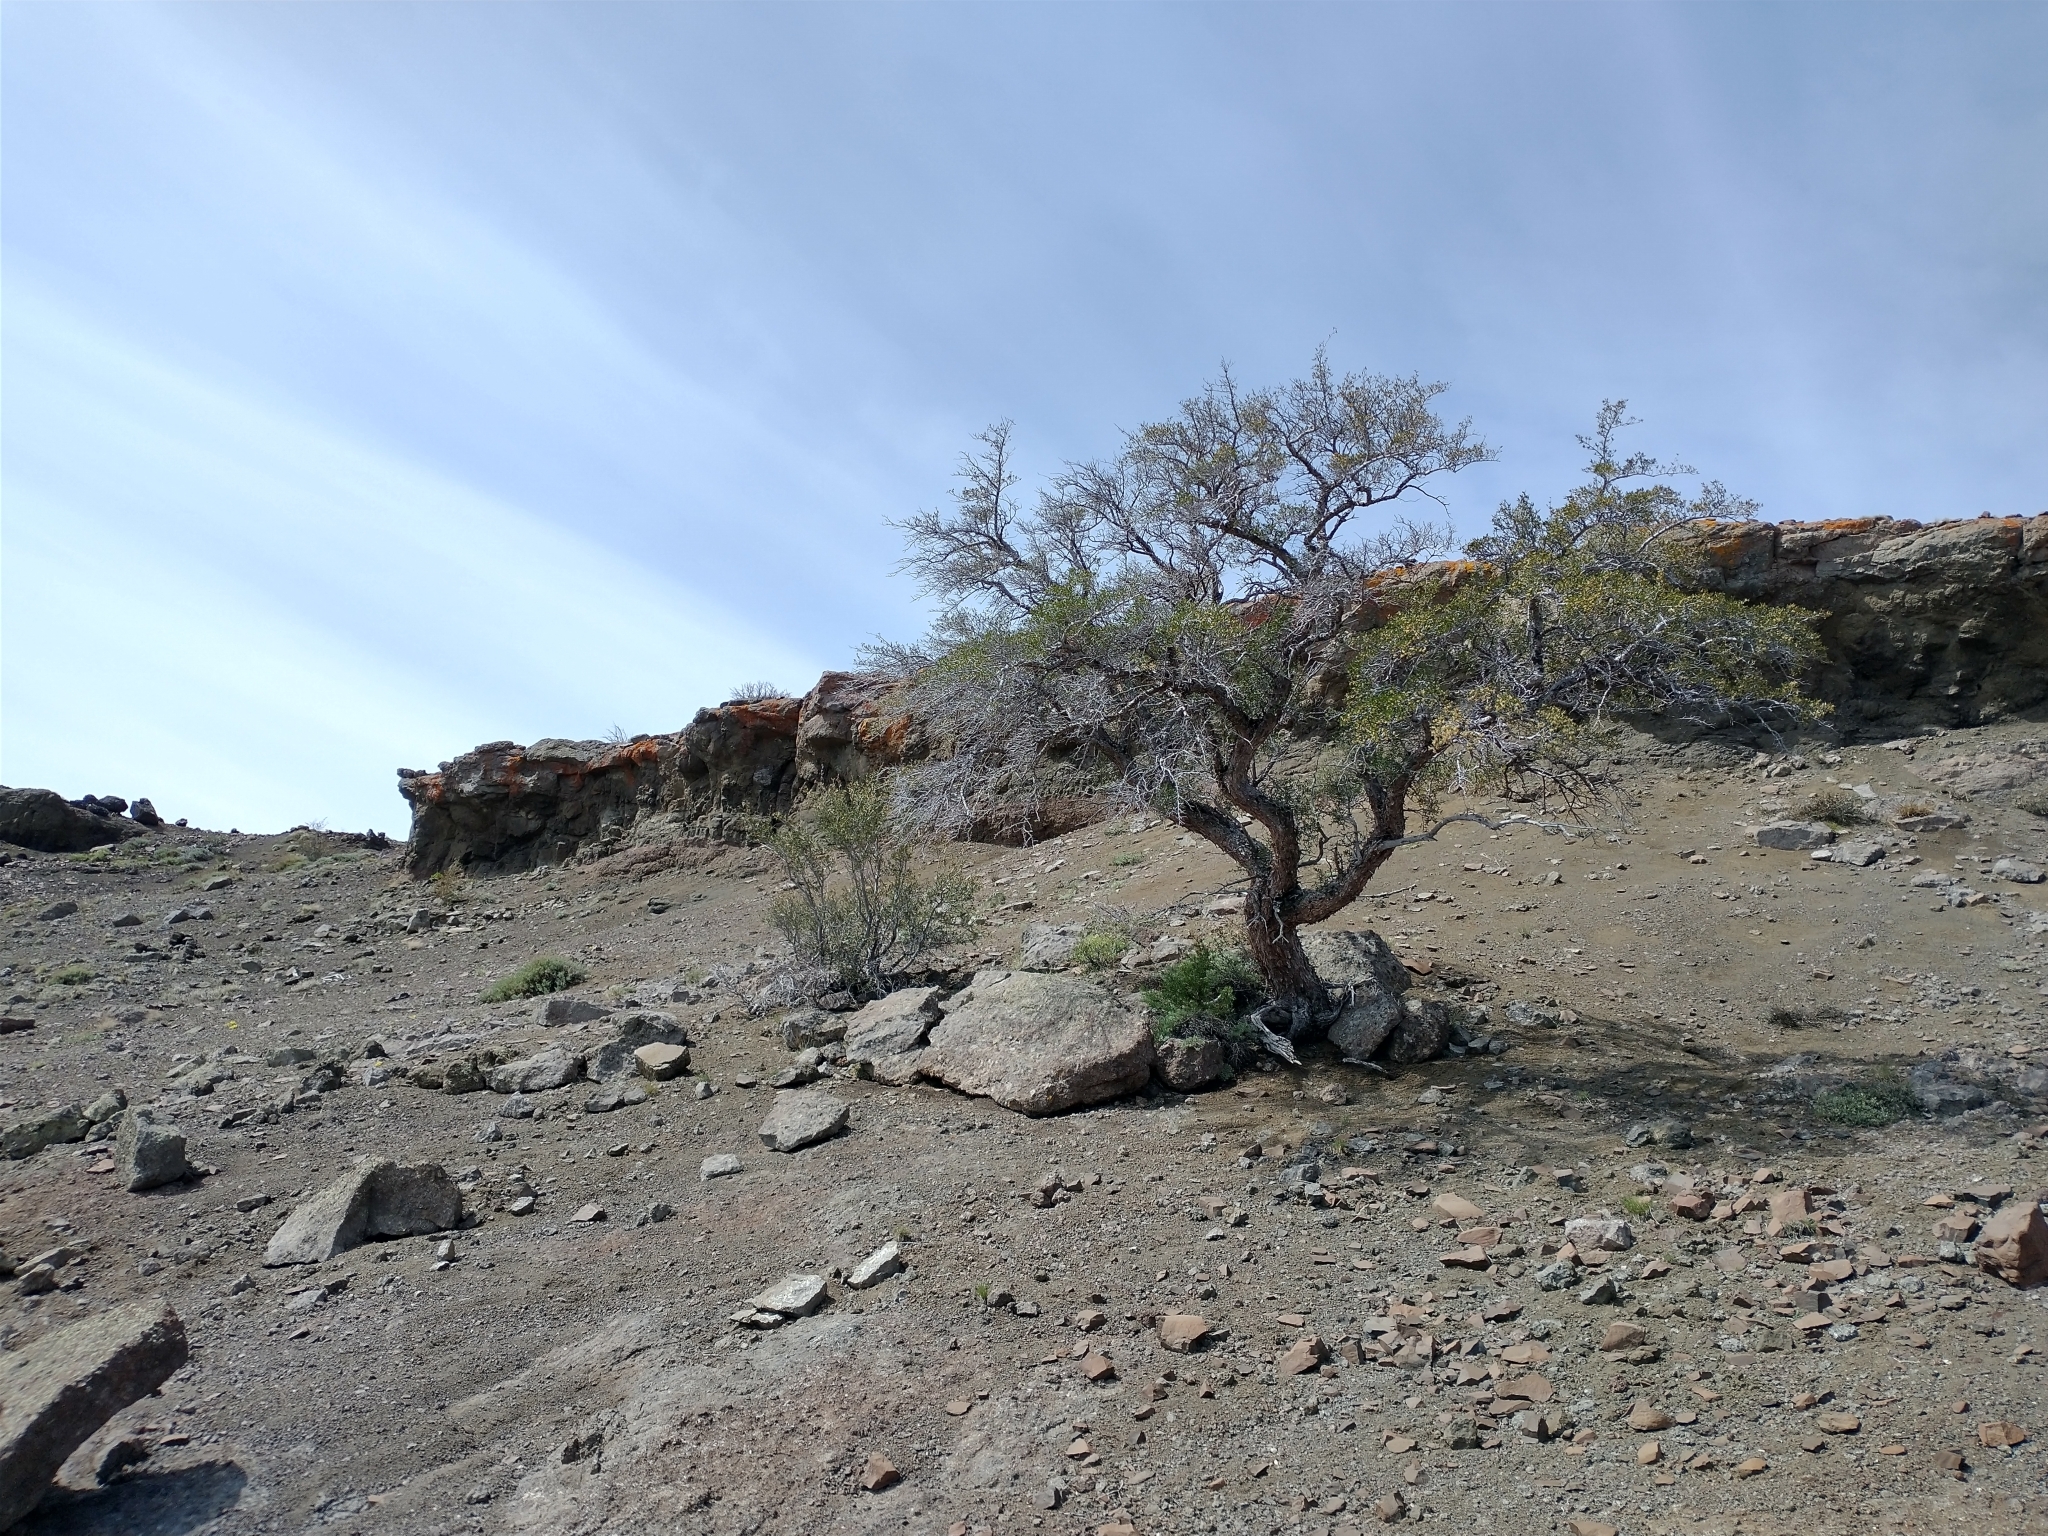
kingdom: Plantae
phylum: Tracheophyta
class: Magnoliopsida
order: Rosales
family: Rosaceae
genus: Cercocarpus
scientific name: Cercocarpus ledifolius
